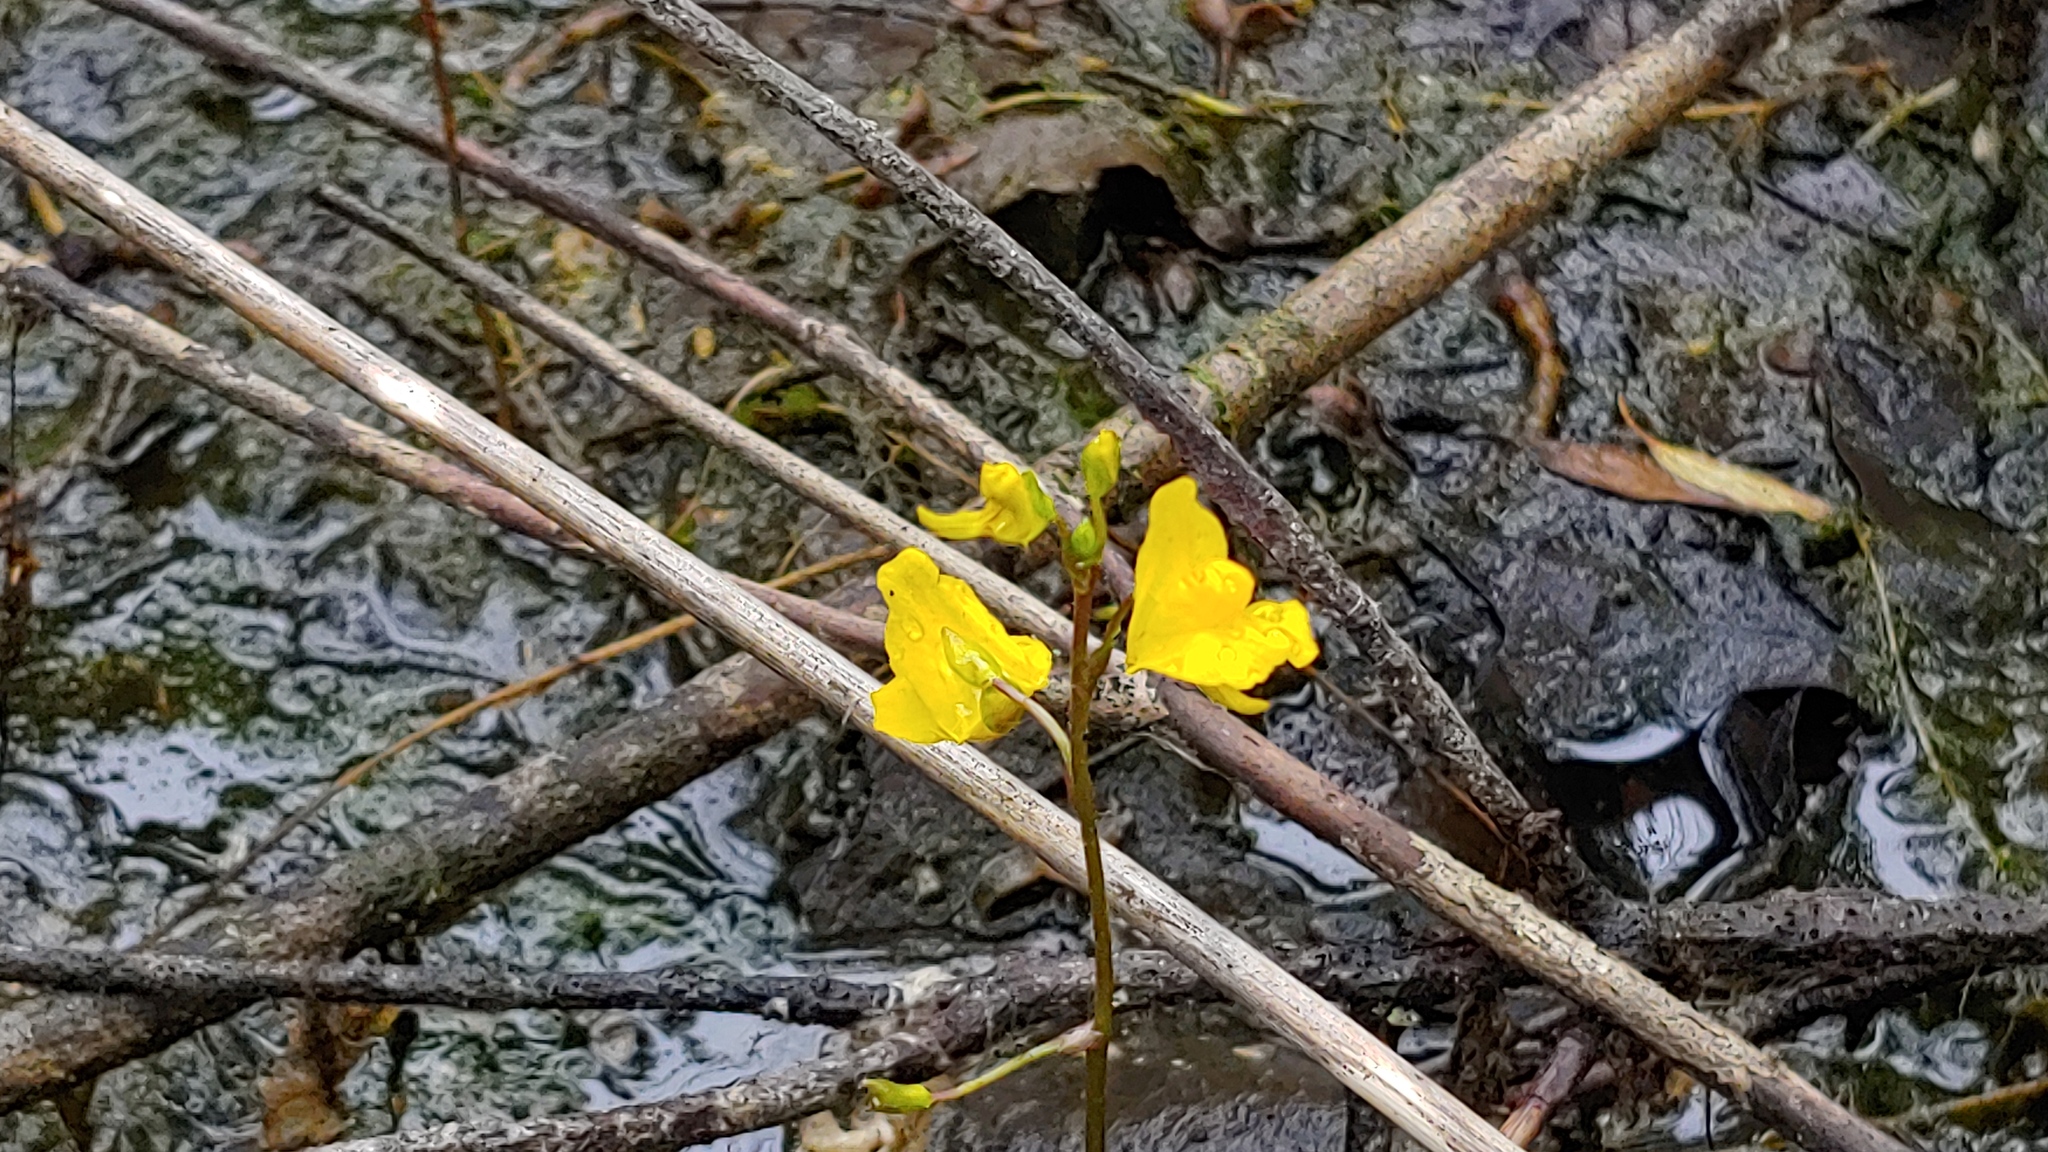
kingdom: Plantae
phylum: Tracheophyta
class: Magnoliopsida
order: Lamiales
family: Lentibulariaceae
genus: Utricularia
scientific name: Utricularia macrorhiza
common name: Common bladderwort
